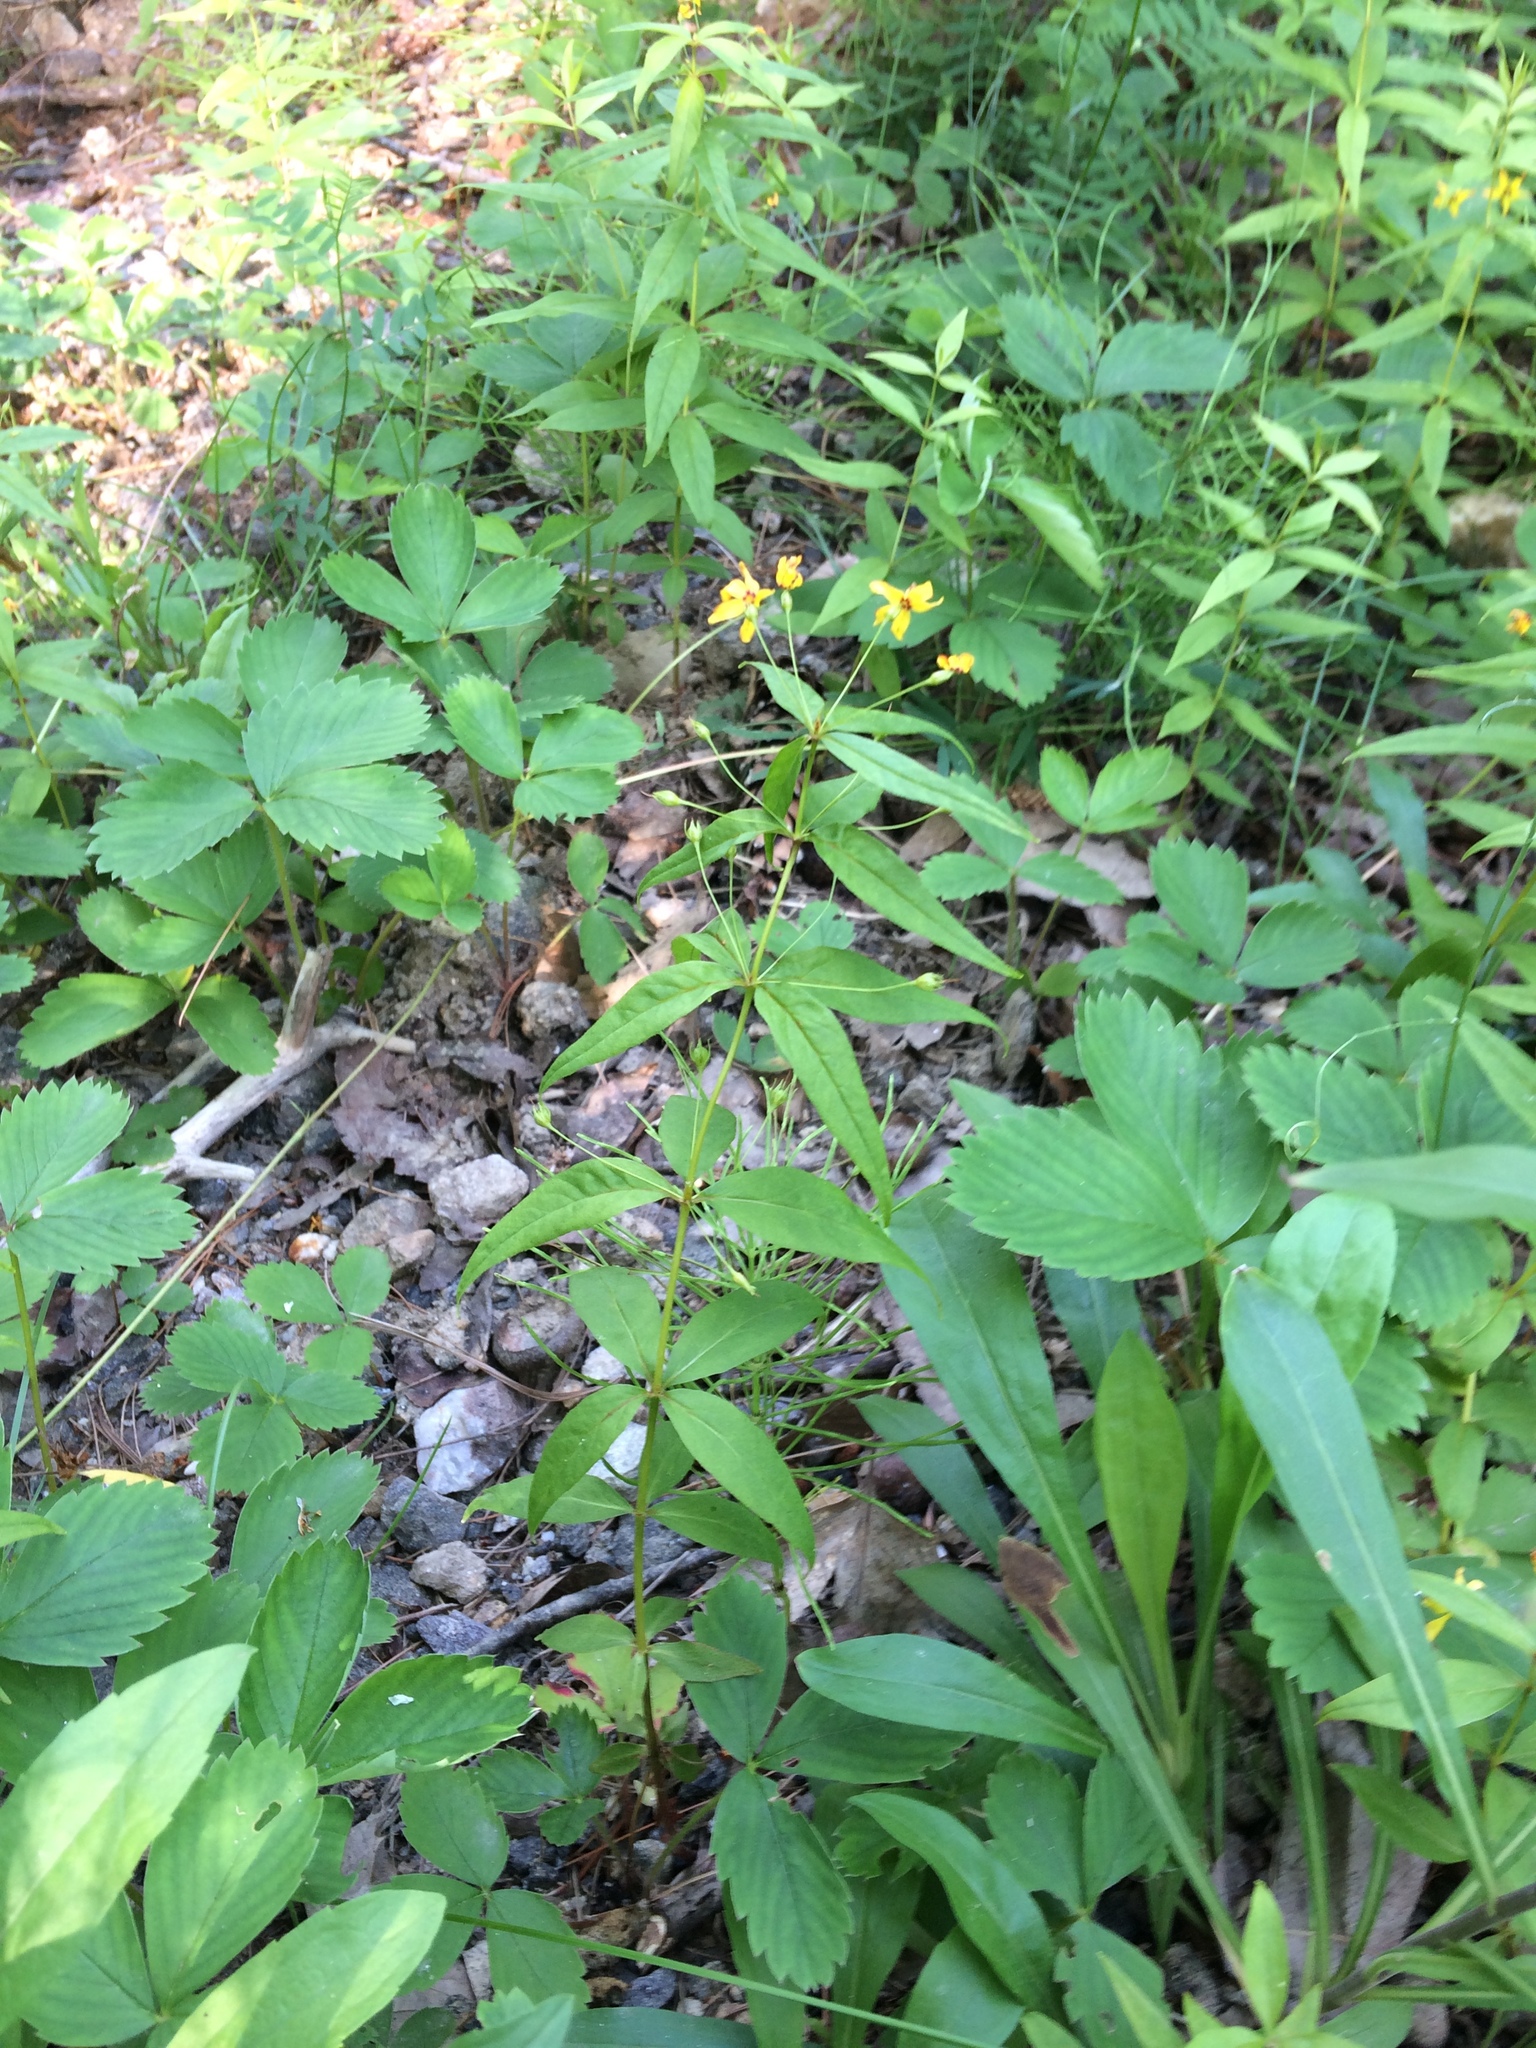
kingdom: Plantae
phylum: Tracheophyta
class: Magnoliopsida
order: Ericales
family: Primulaceae
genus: Lysimachia
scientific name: Lysimachia quadrifolia
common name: Whorled loosestrife
